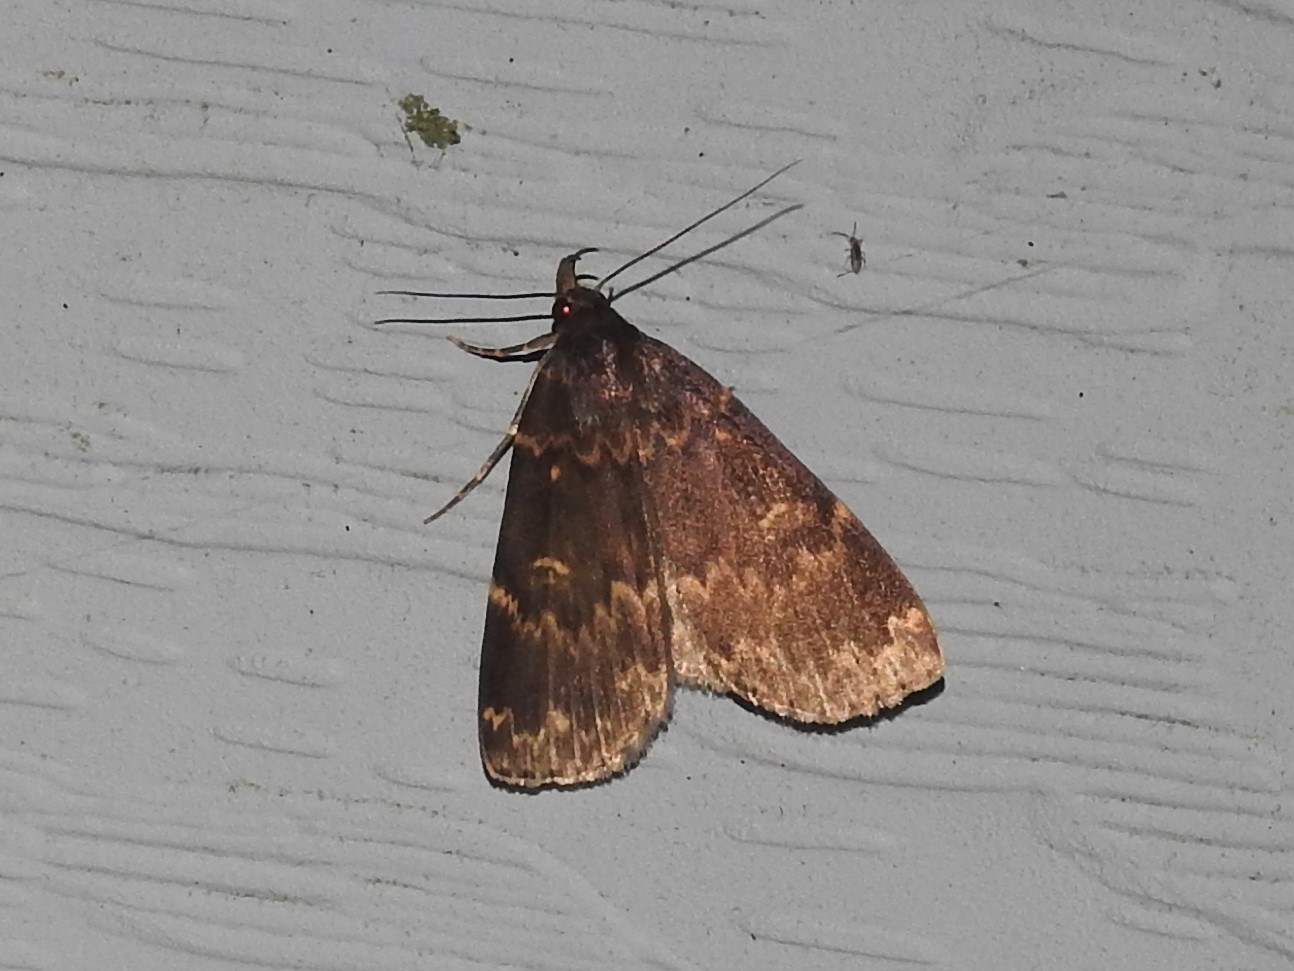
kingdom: Animalia
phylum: Arthropoda
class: Insecta
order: Lepidoptera
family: Erebidae
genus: Idia
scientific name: Idia lubricalis
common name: Twin-striped tabby
